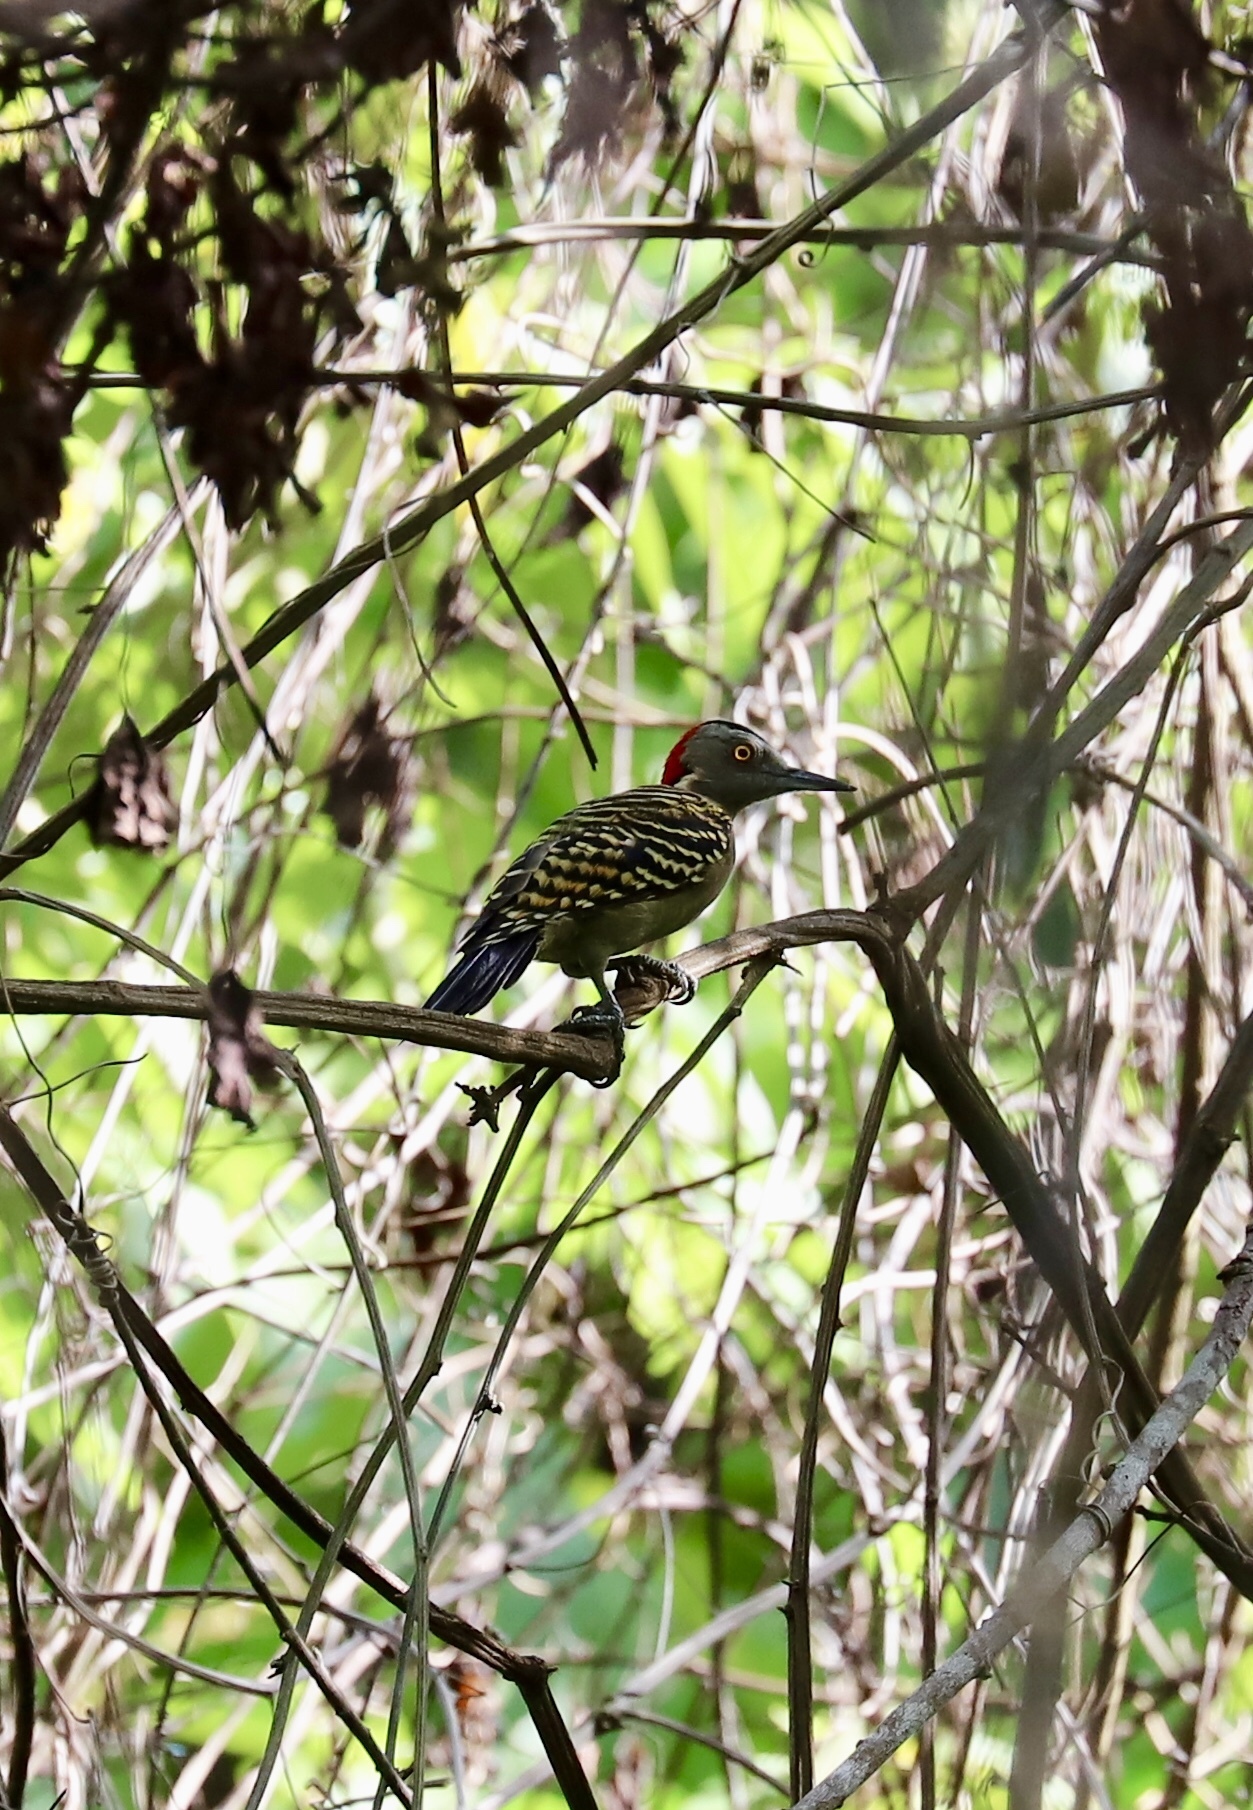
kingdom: Animalia
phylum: Chordata
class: Aves
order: Piciformes
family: Picidae
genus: Melanerpes
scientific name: Melanerpes striatus
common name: Hispaniolan woodpecker
